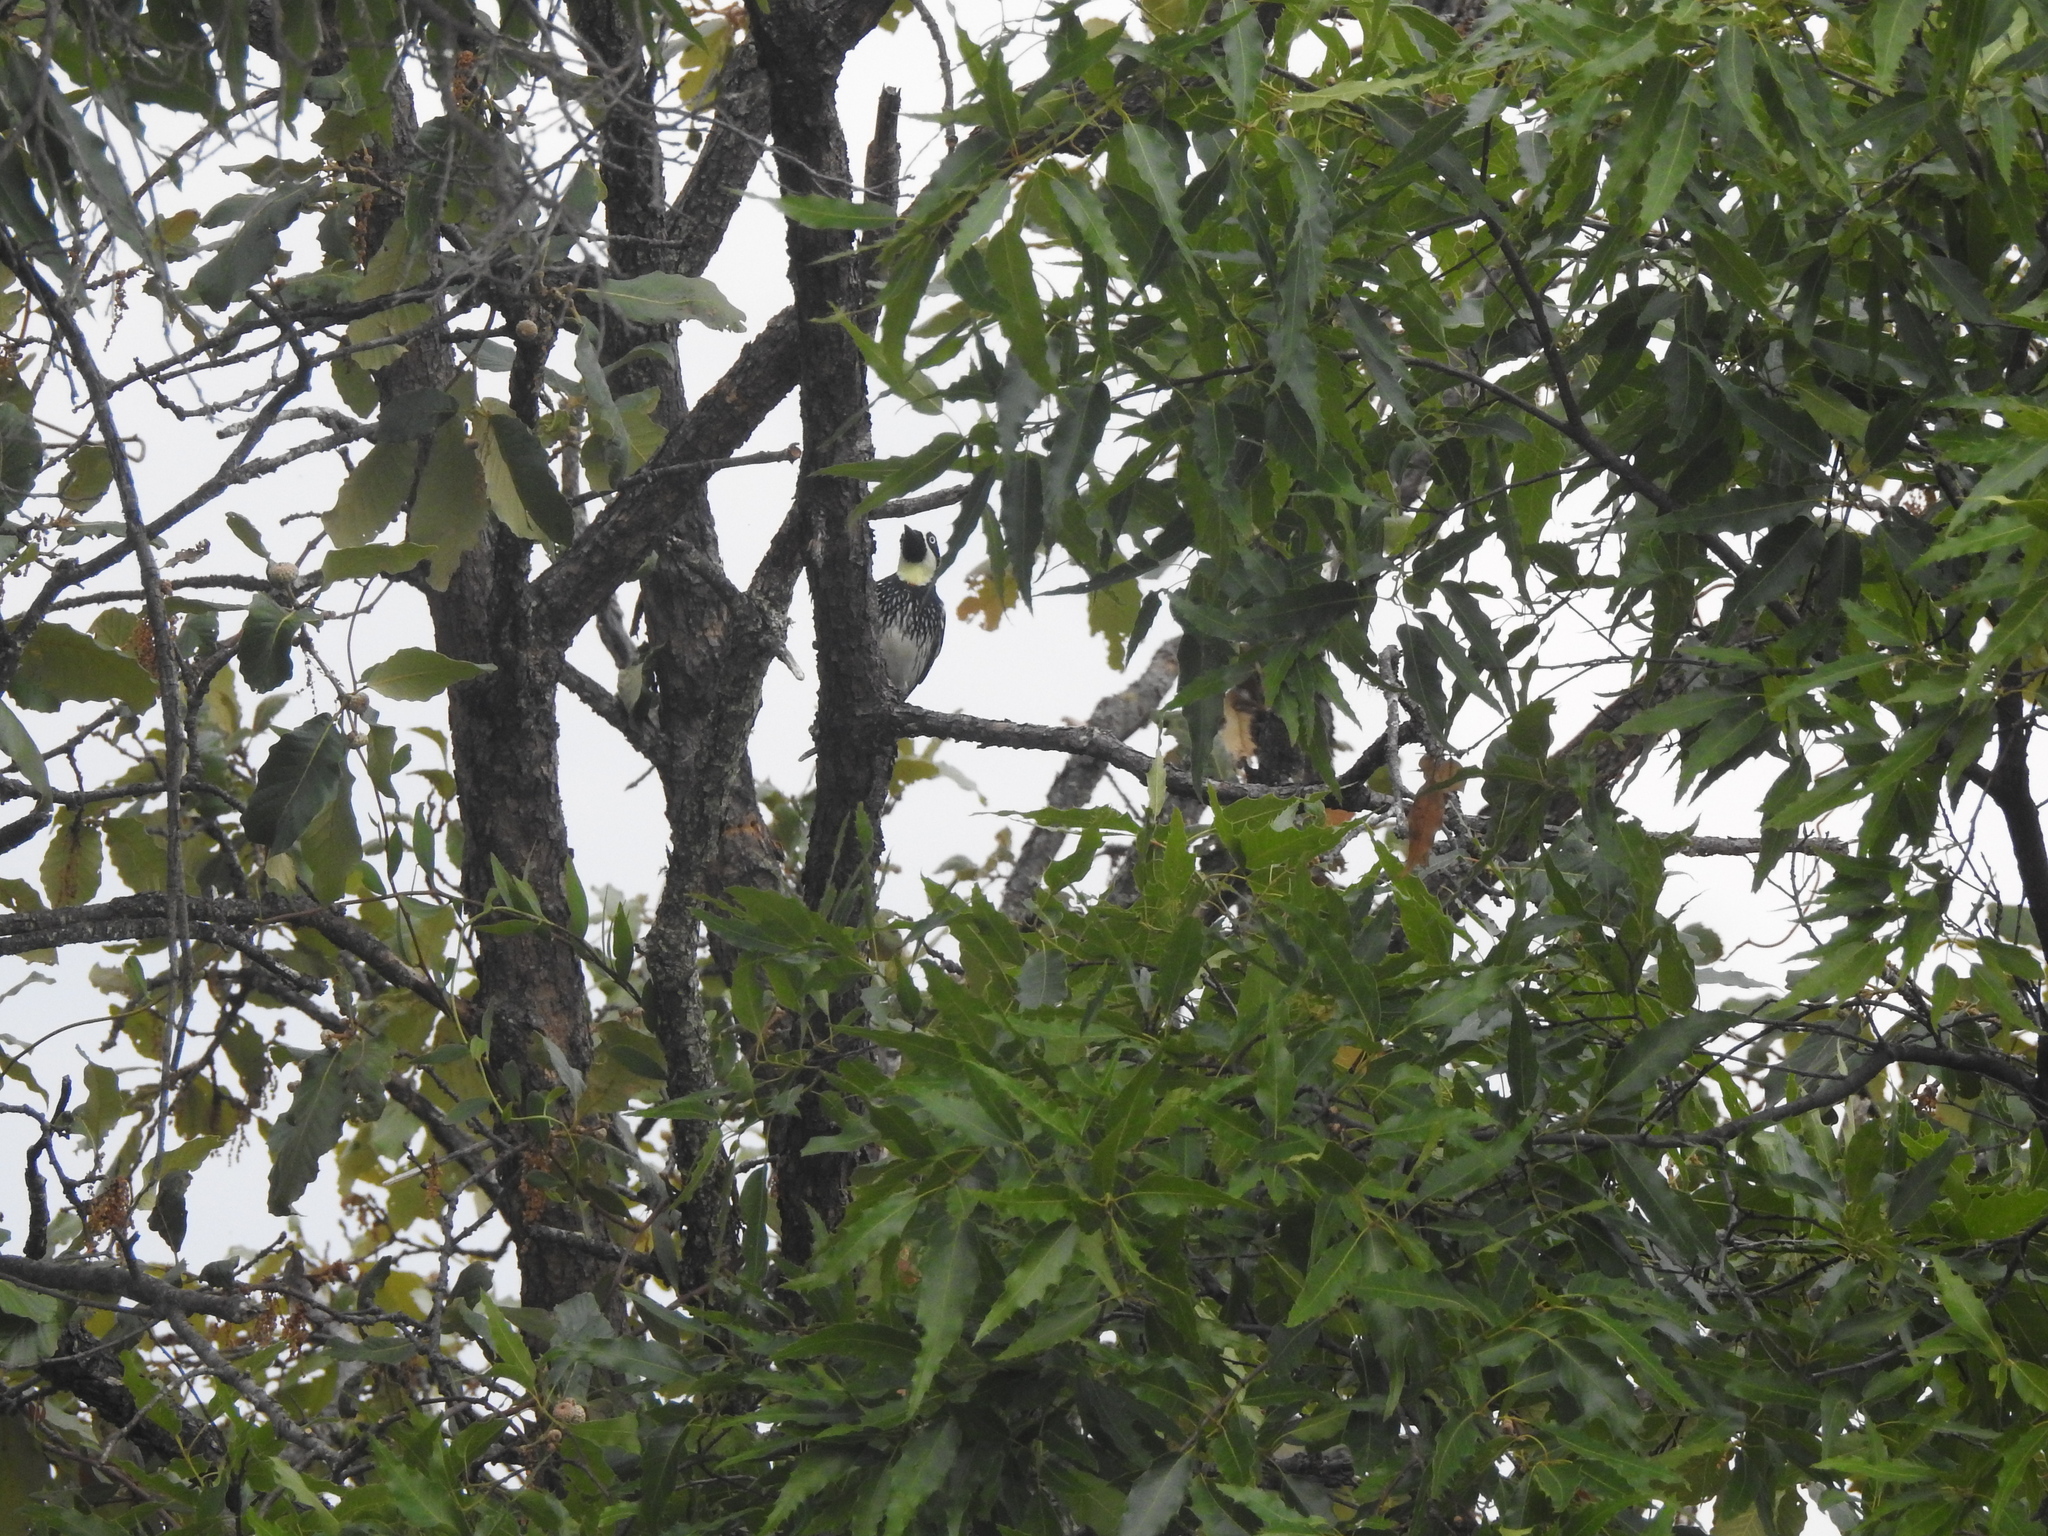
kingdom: Animalia
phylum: Chordata
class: Aves
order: Piciformes
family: Picidae
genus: Melanerpes
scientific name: Melanerpes formicivorus
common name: Acorn woodpecker
